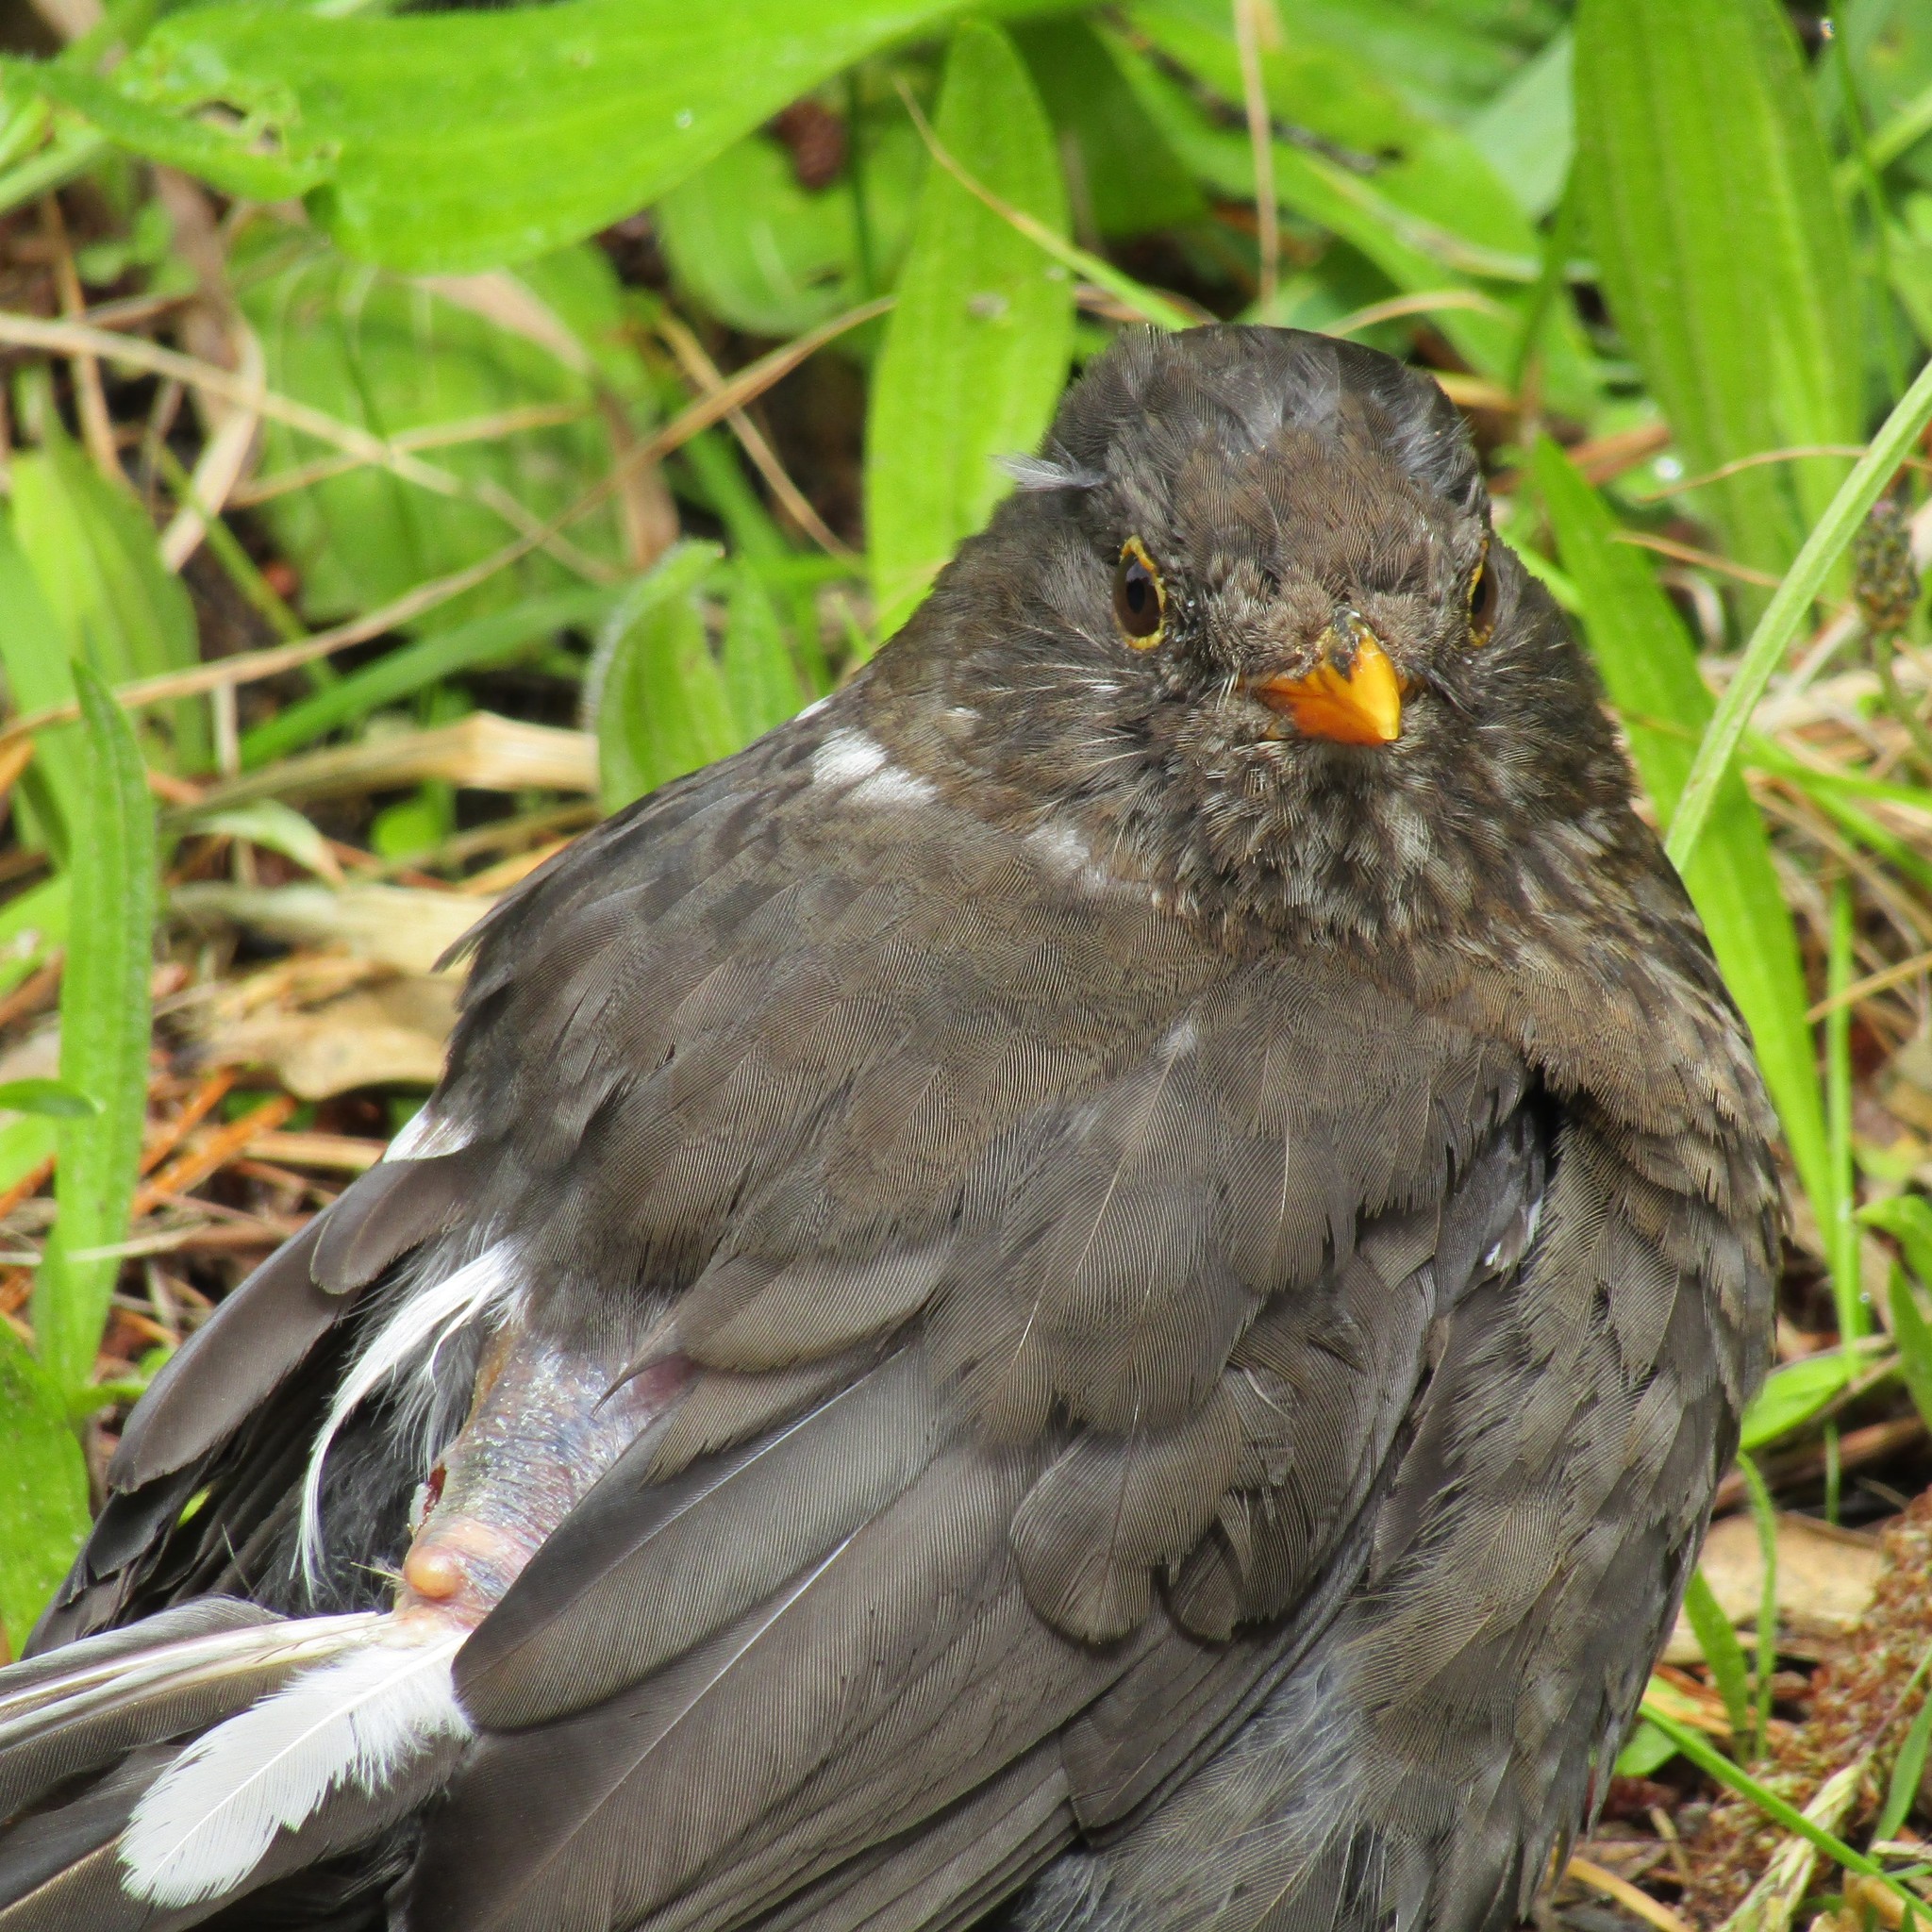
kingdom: Animalia
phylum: Chordata
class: Aves
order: Passeriformes
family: Turdidae
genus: Turdus
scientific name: Turdus merula
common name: Common blackbird
